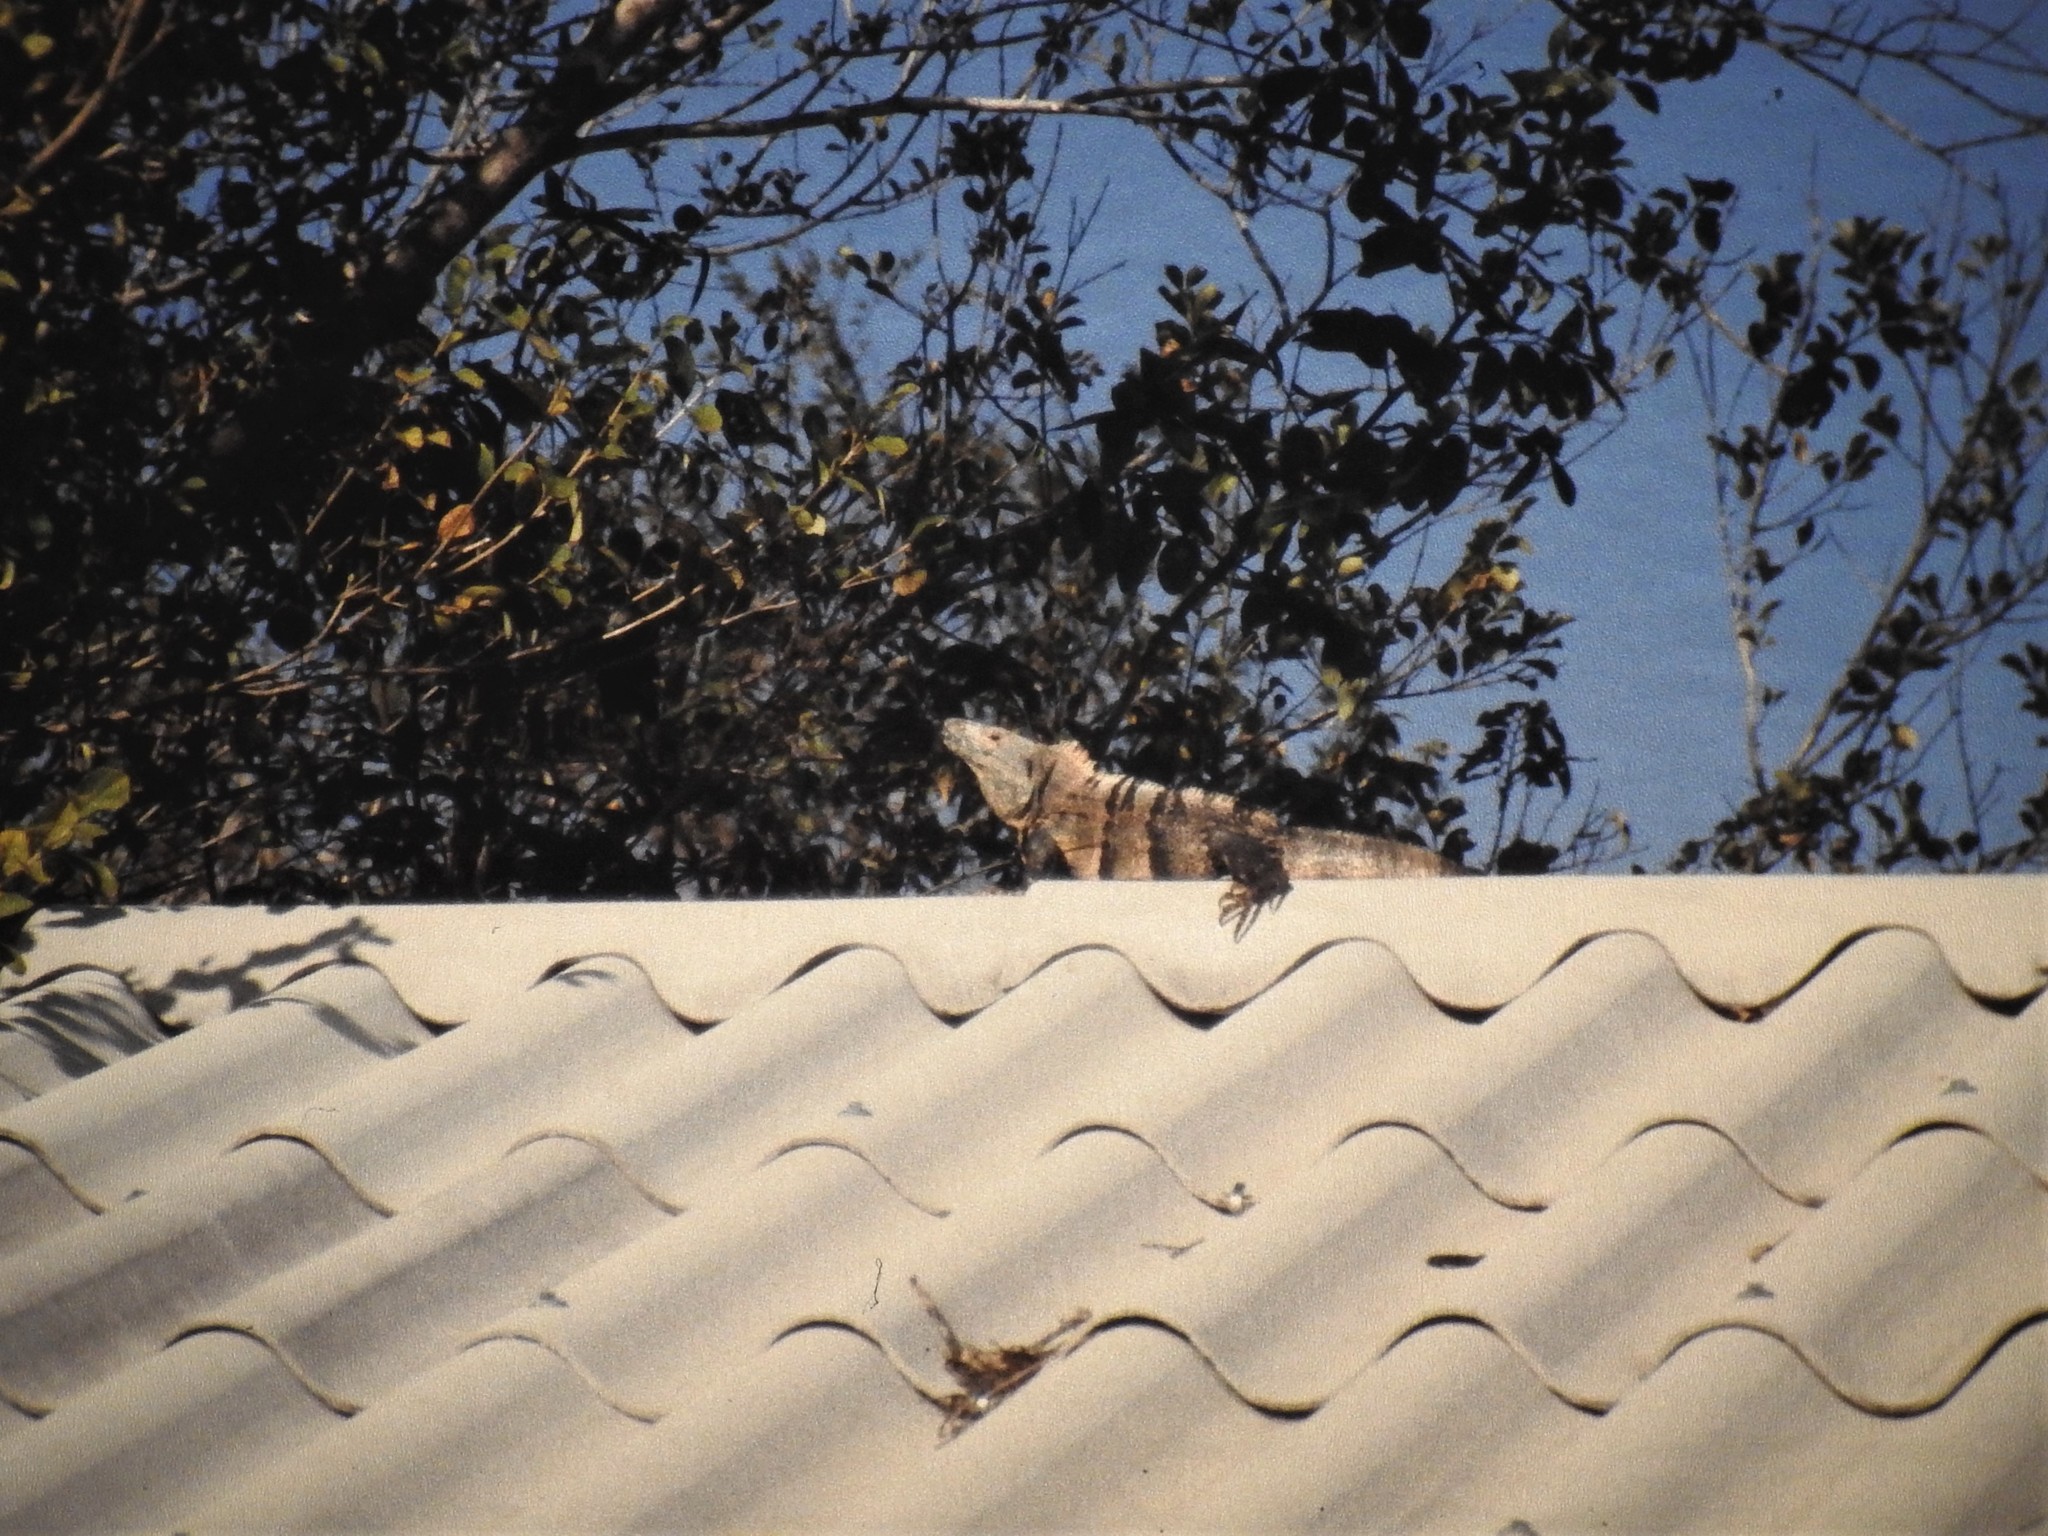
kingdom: Animalia
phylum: Chordata
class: Squamata
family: Iguanidae
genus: Ctenosaura
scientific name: Ctenosaura similis
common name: Black spiny-tailed iguana
